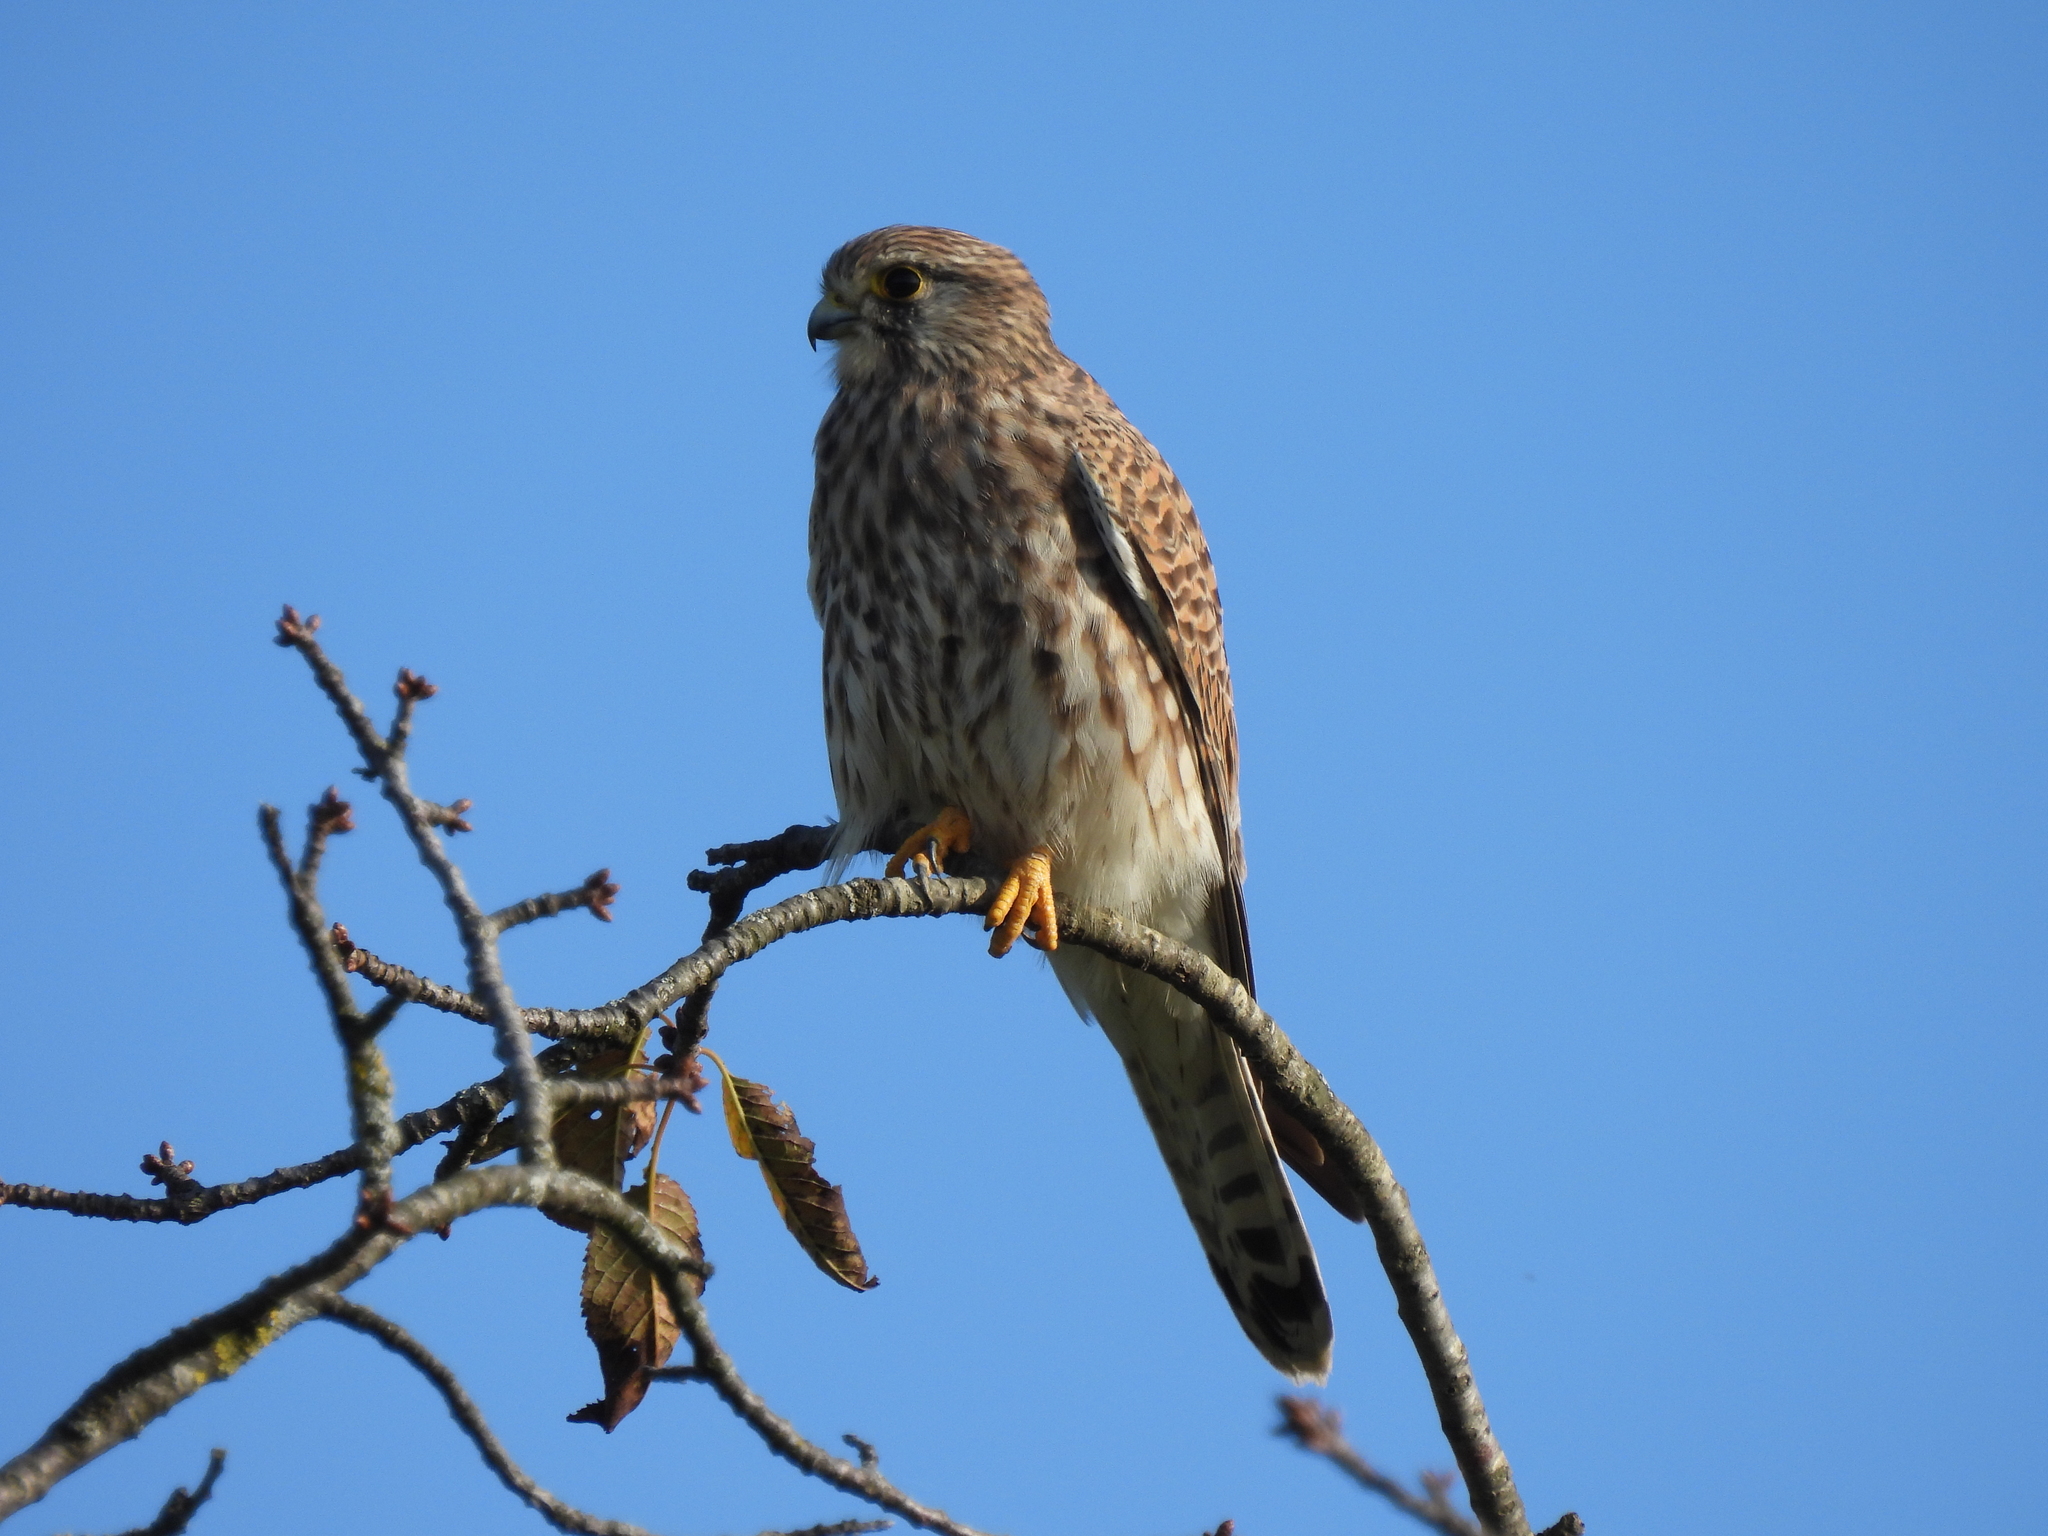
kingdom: Animalia
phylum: Chordata
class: Aves
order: Falconiformes
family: Falconidae
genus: Falco
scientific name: Falco tinnunculus
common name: Common kestrel
